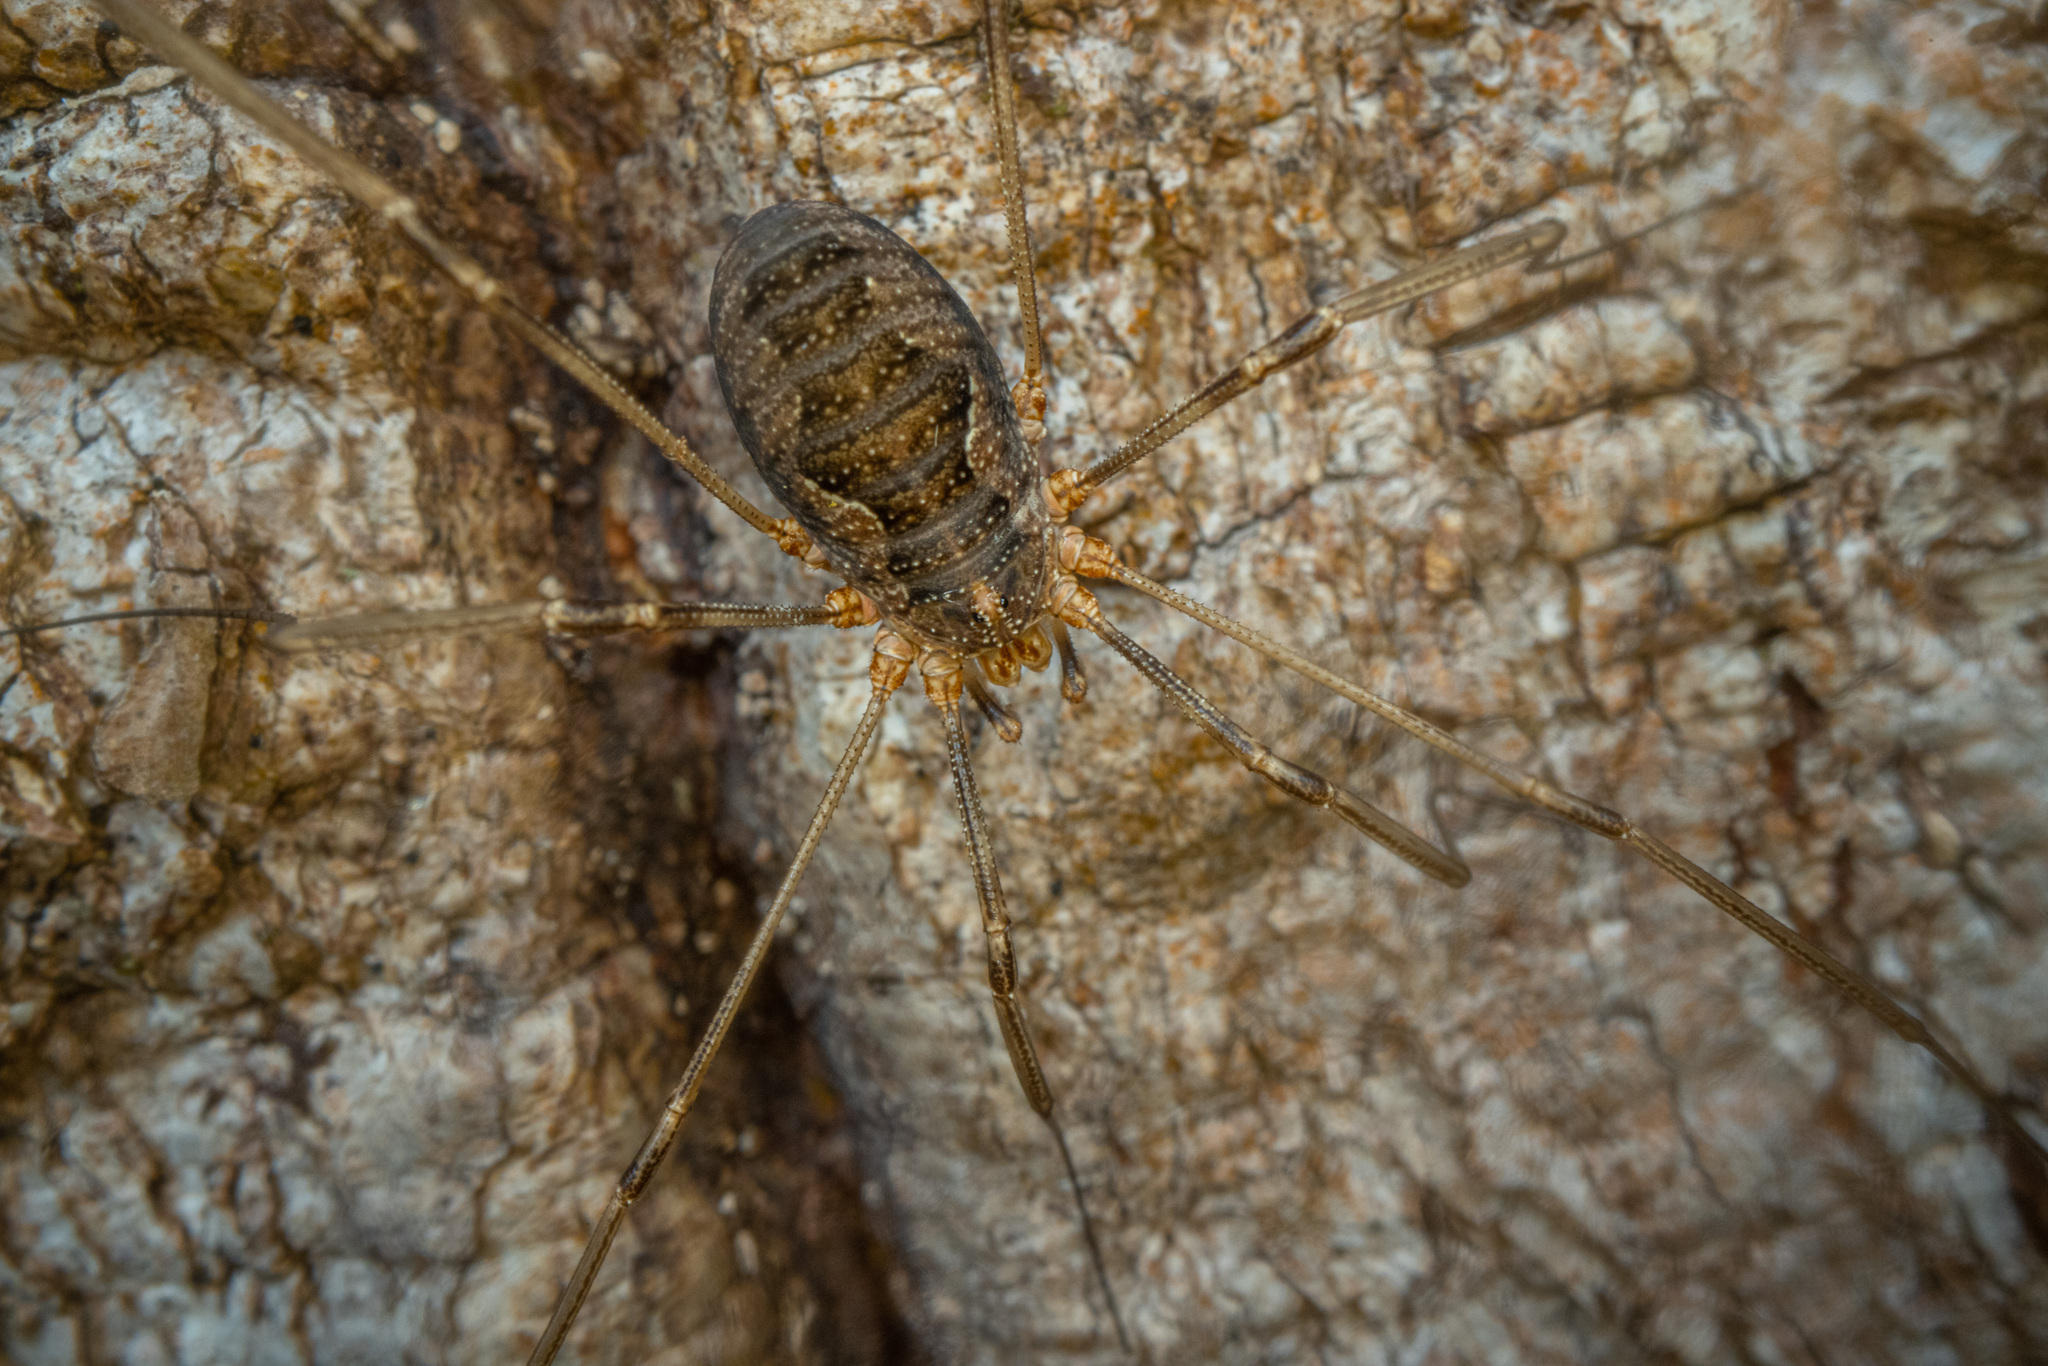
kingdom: Animalia
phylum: Arthropoda
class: Arachnida
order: Opiliones
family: Phalangiidae
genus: Phalangium
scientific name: Phalangium opilio
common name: Daddy longleg
